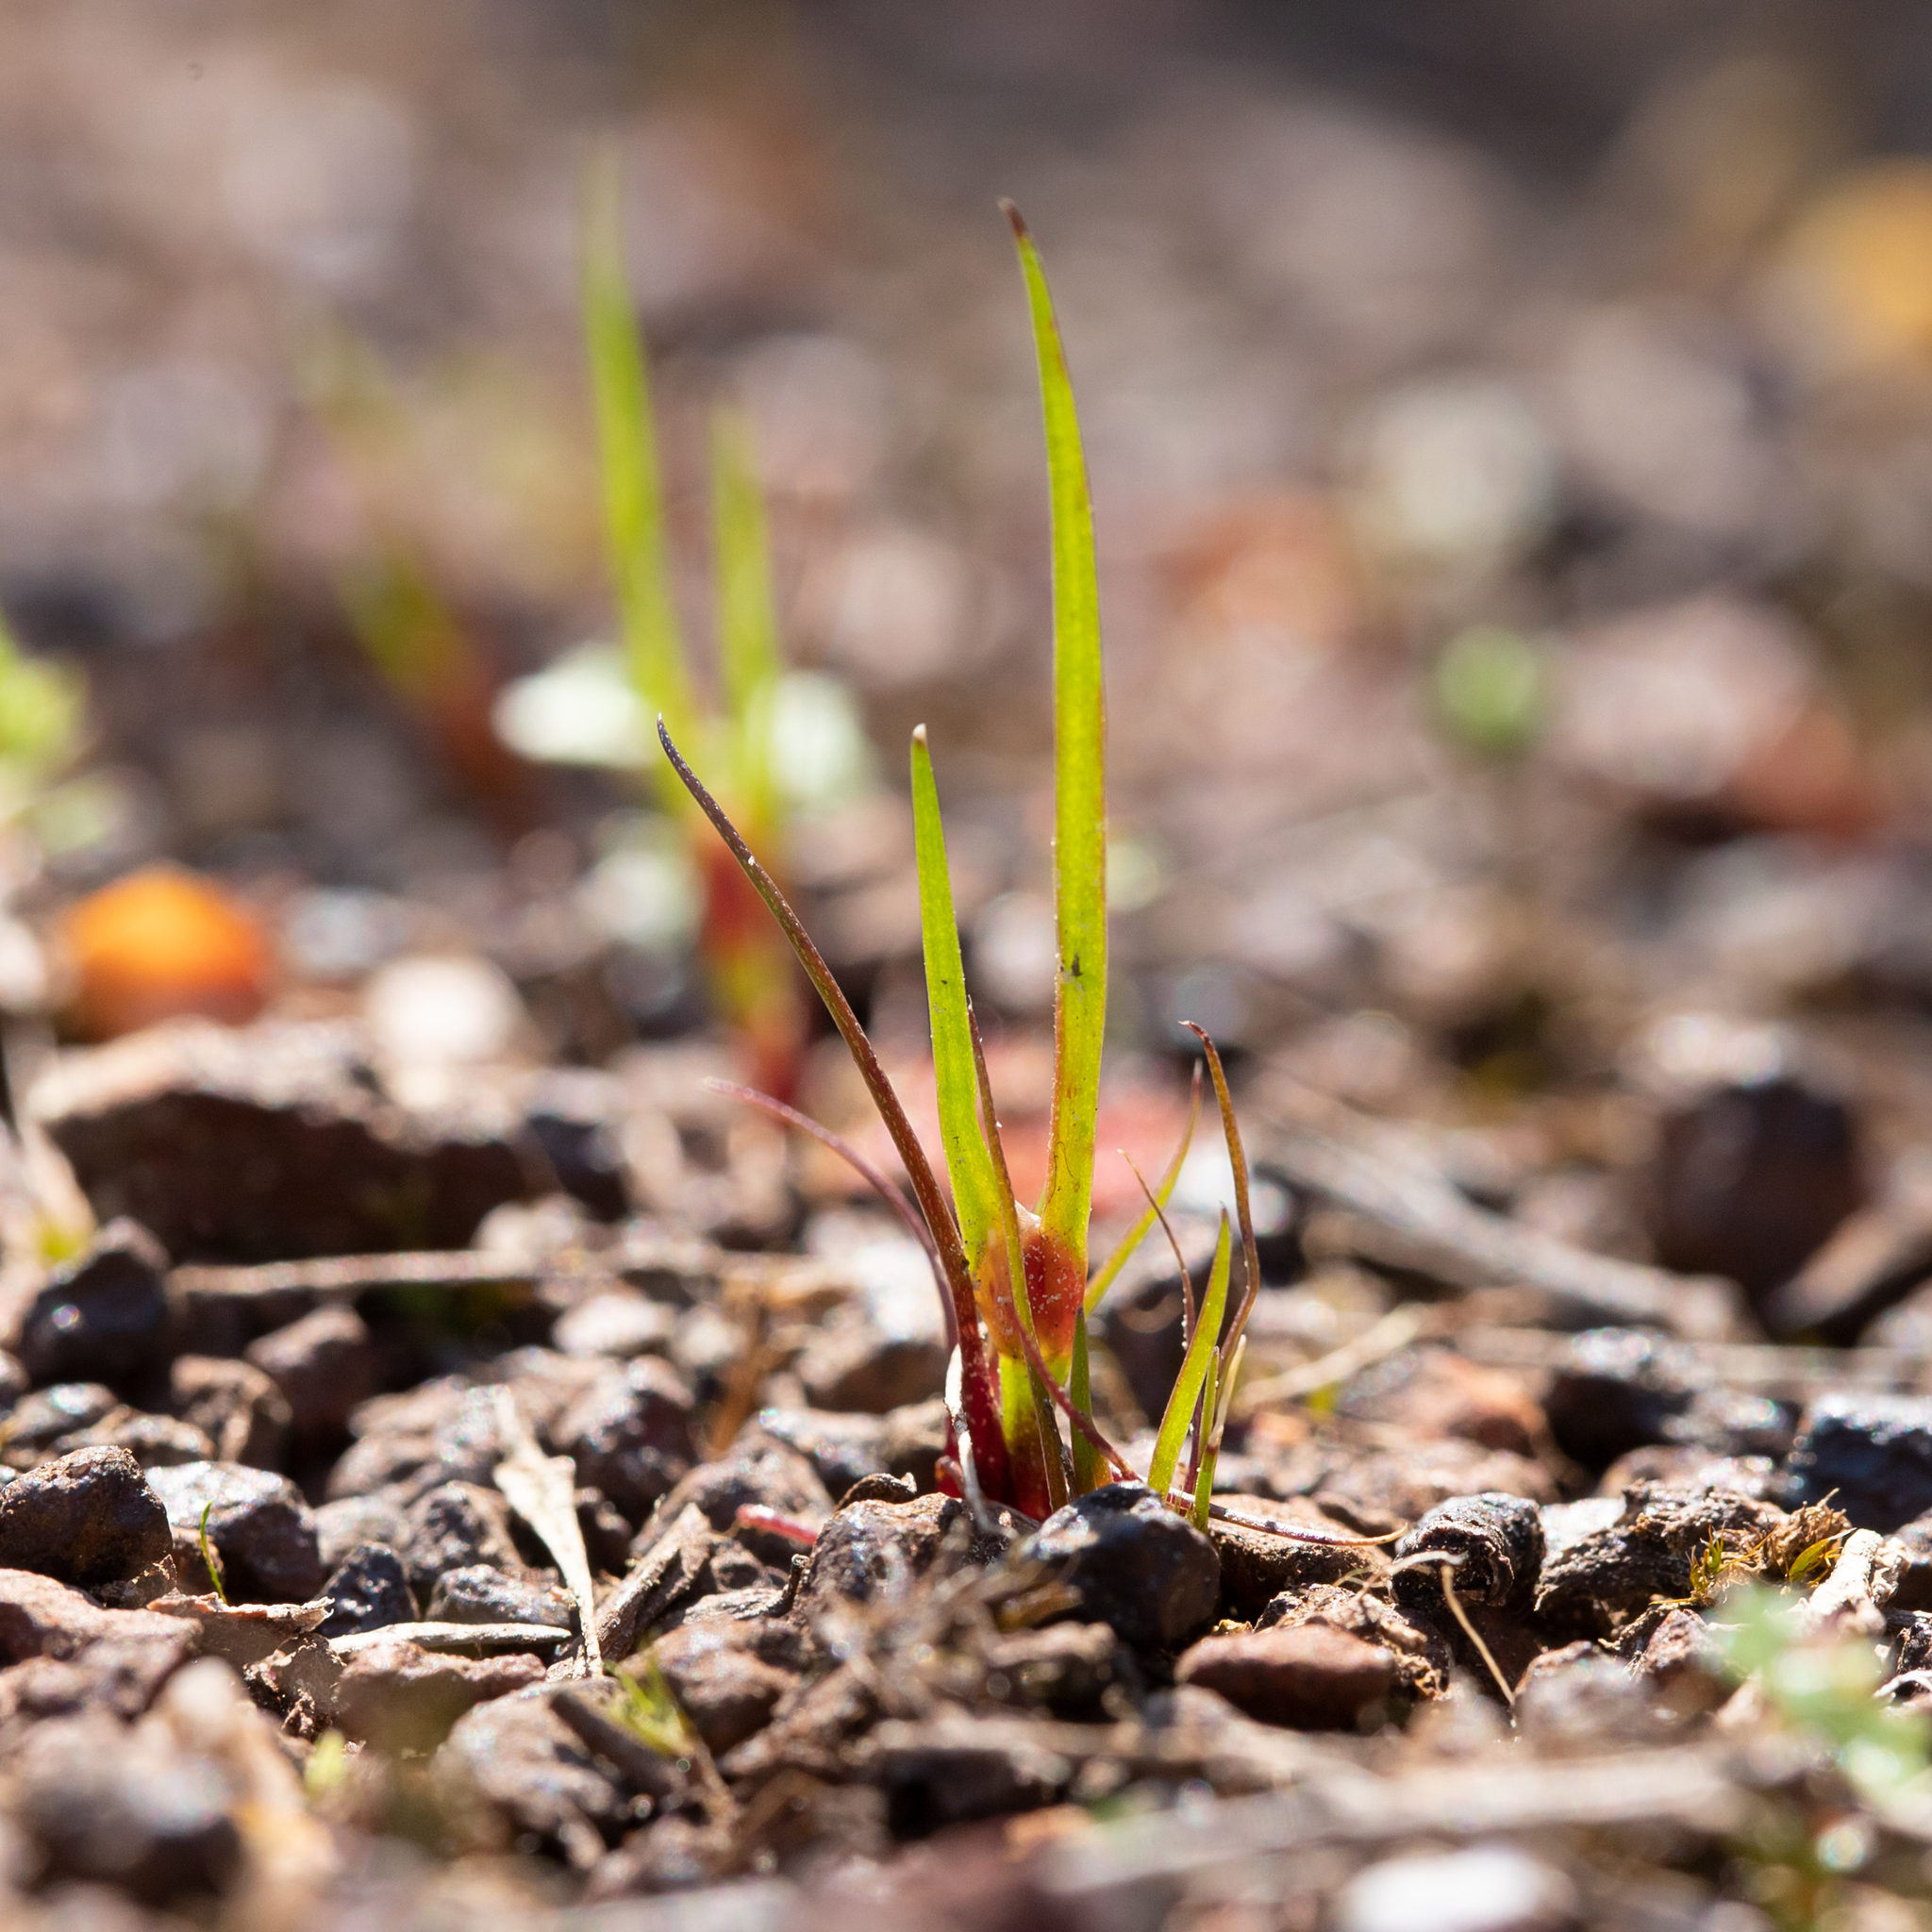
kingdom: Plantae
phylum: Tracheophyta
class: Liliopsida
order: Poales
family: Restionaceae
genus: Centrolepis
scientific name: Centrolepis aristata
